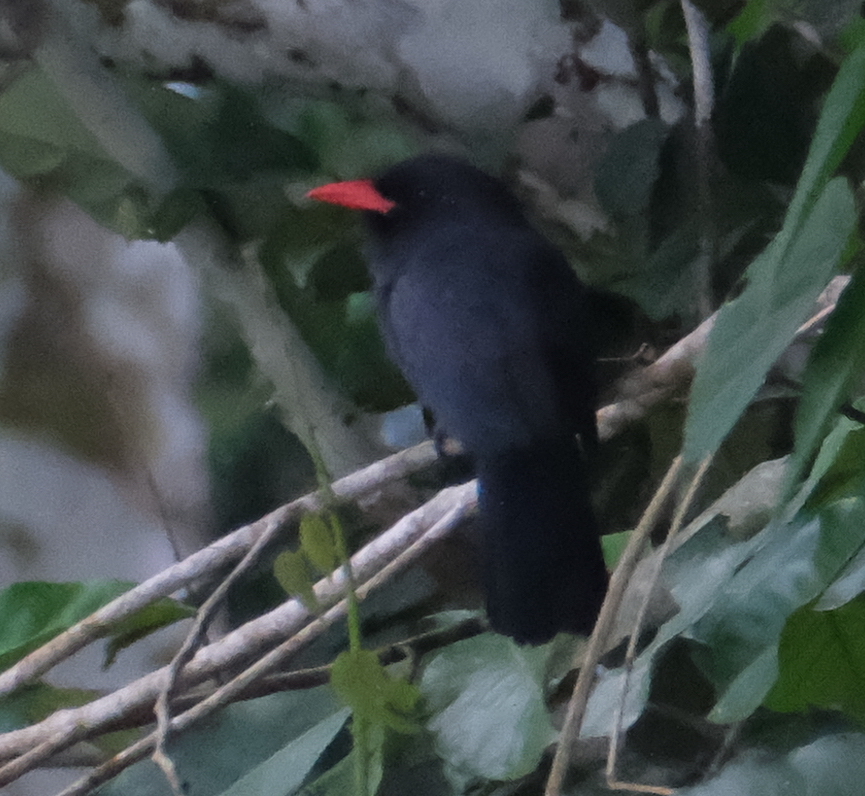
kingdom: Animalia
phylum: Chordata
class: Aves
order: Piciformes
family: Bucconidae
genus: Monasa
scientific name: Monasa nigrifrons
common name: Black-fronted nunbird
